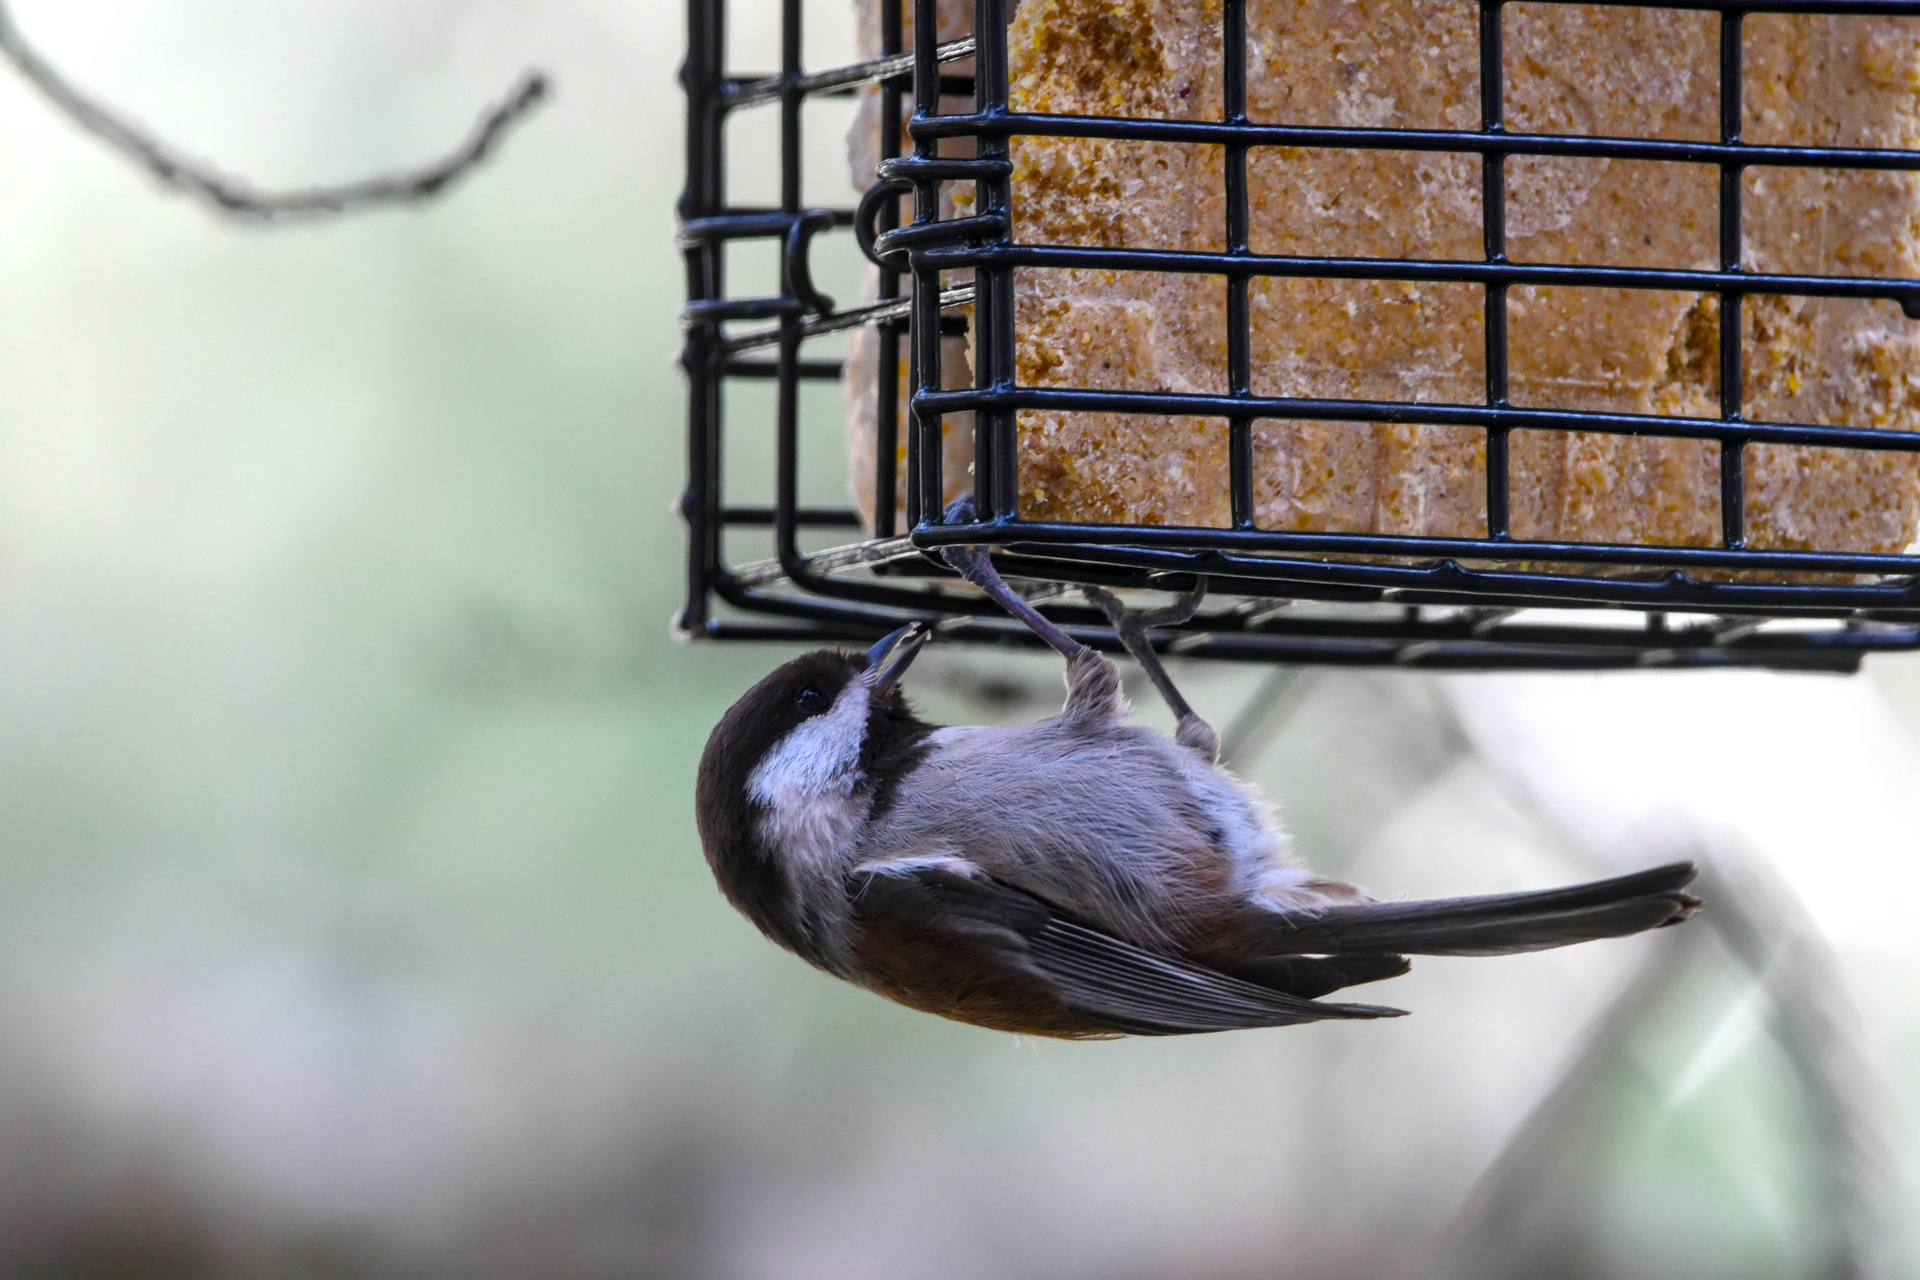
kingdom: Animalia
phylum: Chordata
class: Aves
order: Passeriformes
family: Paridae
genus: Poecile
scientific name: Poecile rufescens
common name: Chestnut-backed chickadee
